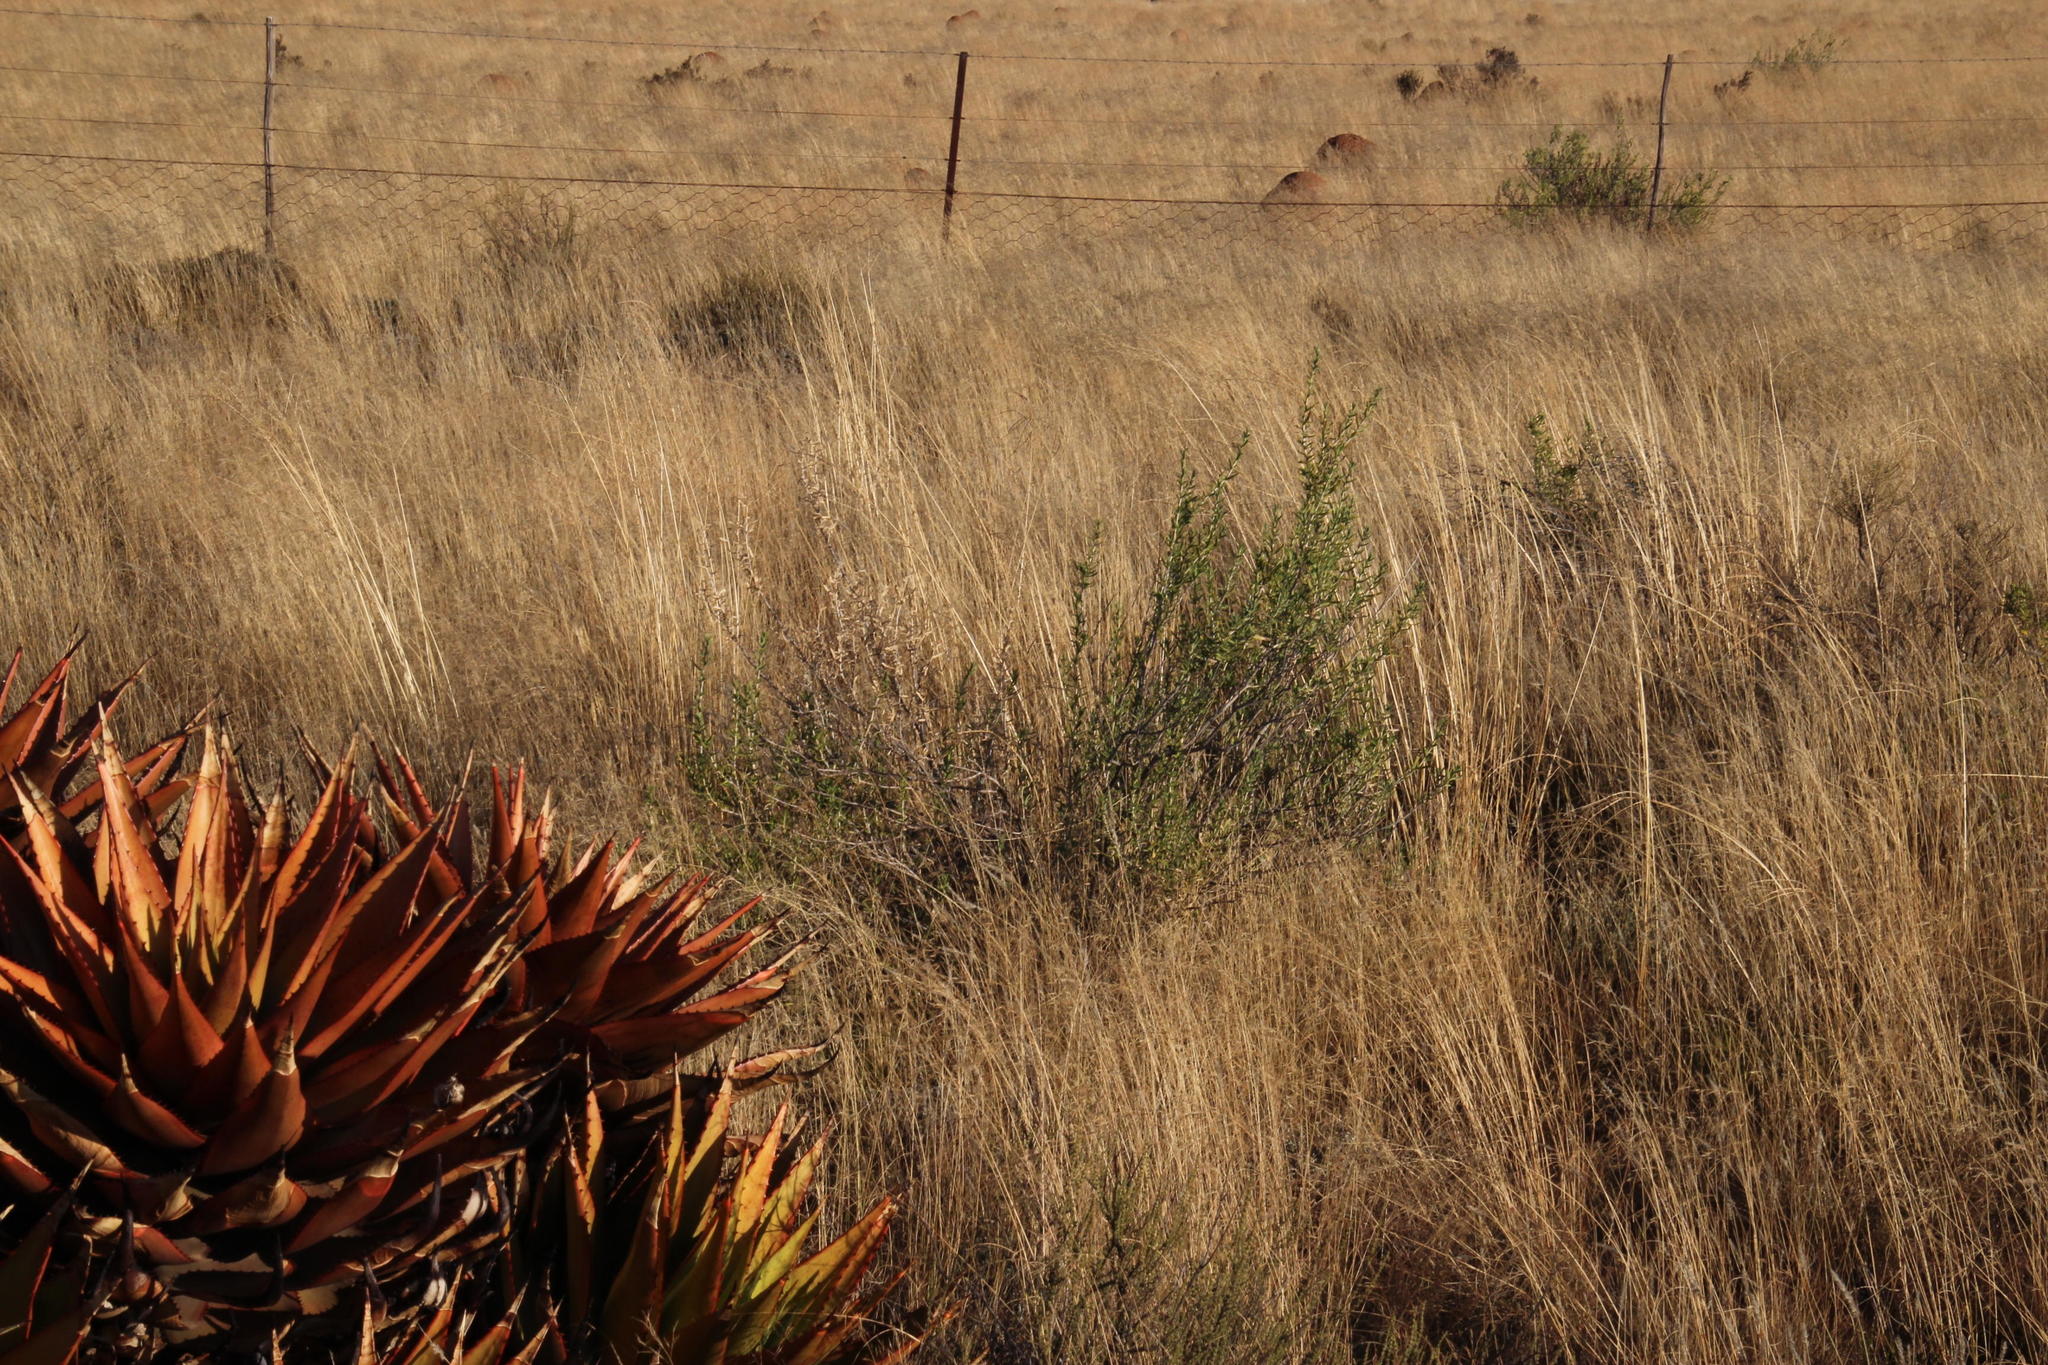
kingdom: Plantae
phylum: Tracheophyta
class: Liliopsida
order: Asparagales
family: Asphodelaceae
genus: Aloe
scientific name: Aloe broomii
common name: Berg alwyn
